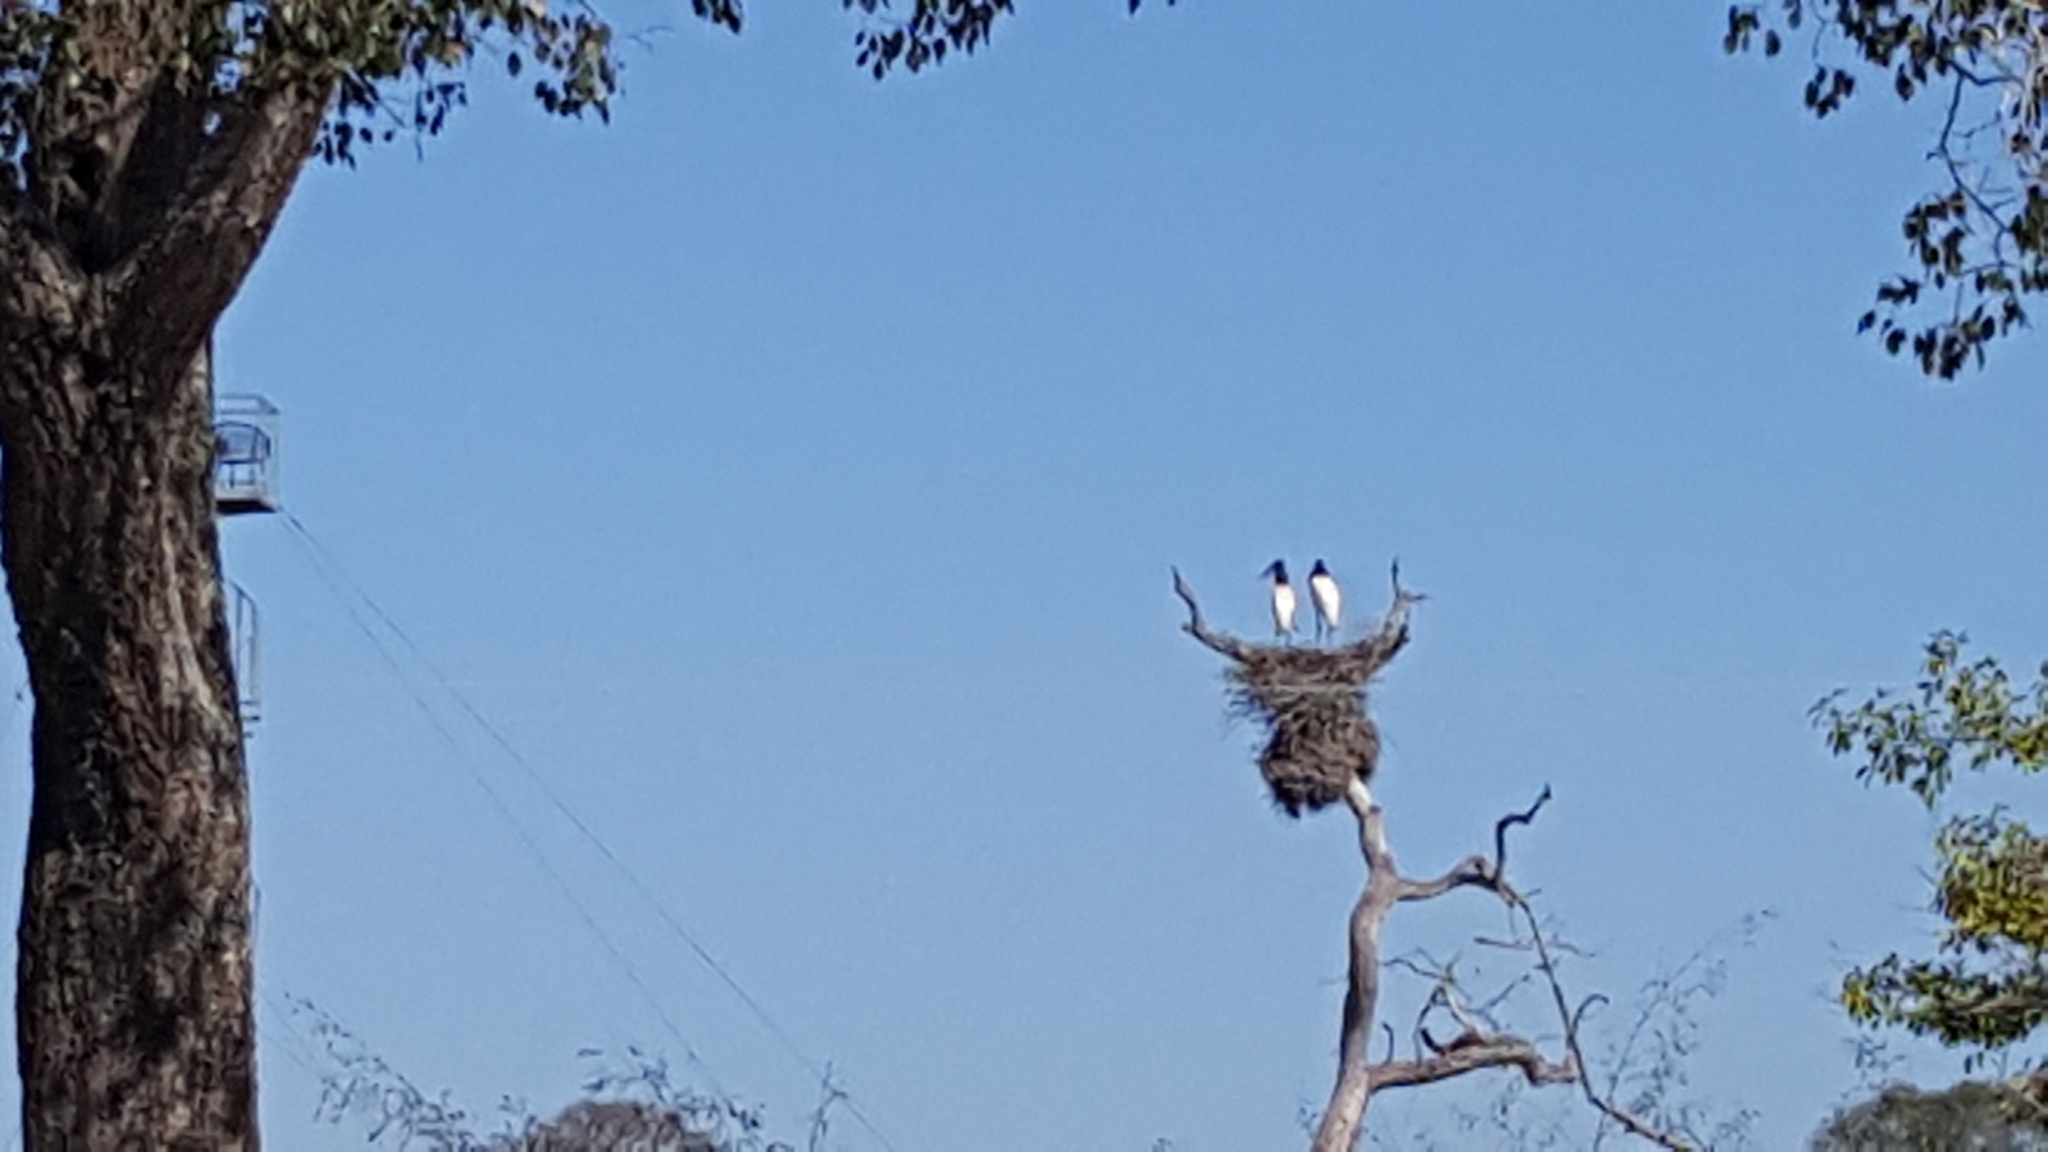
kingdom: Animalia
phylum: Chordata
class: Aves
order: Ciconiiformes
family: Ciconiidae
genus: Jabiru
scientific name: Jabiru mycteria
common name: Jabiru
